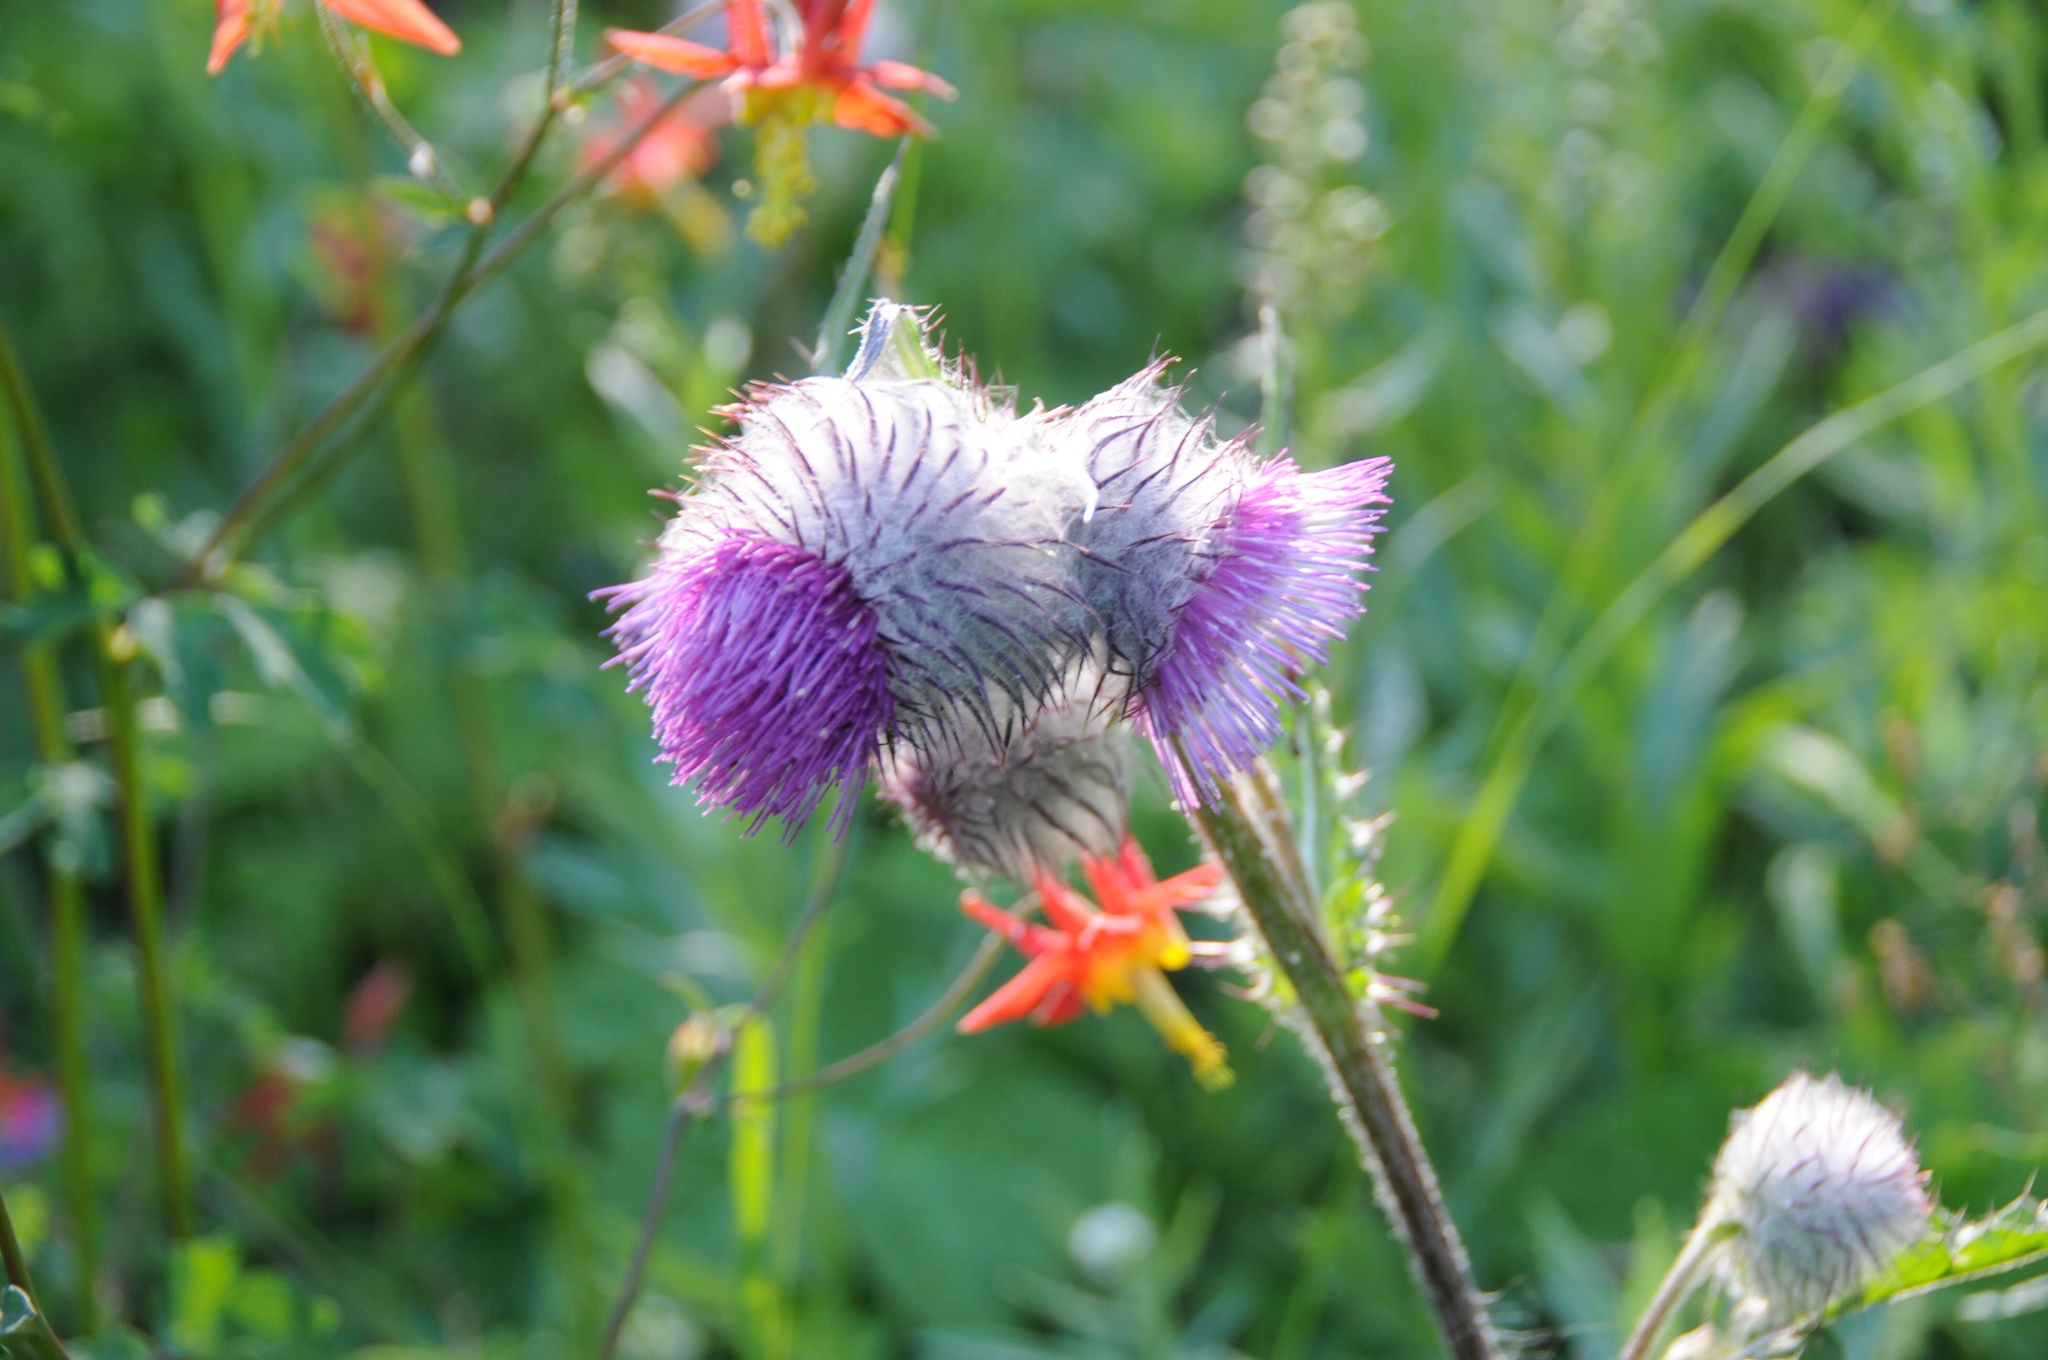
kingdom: Plantae
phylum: Tracheophyta
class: Magnoliopsida
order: Asterales
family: Asteraceae
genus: Cirsium
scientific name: Cirsium edule
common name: Indian thistle
